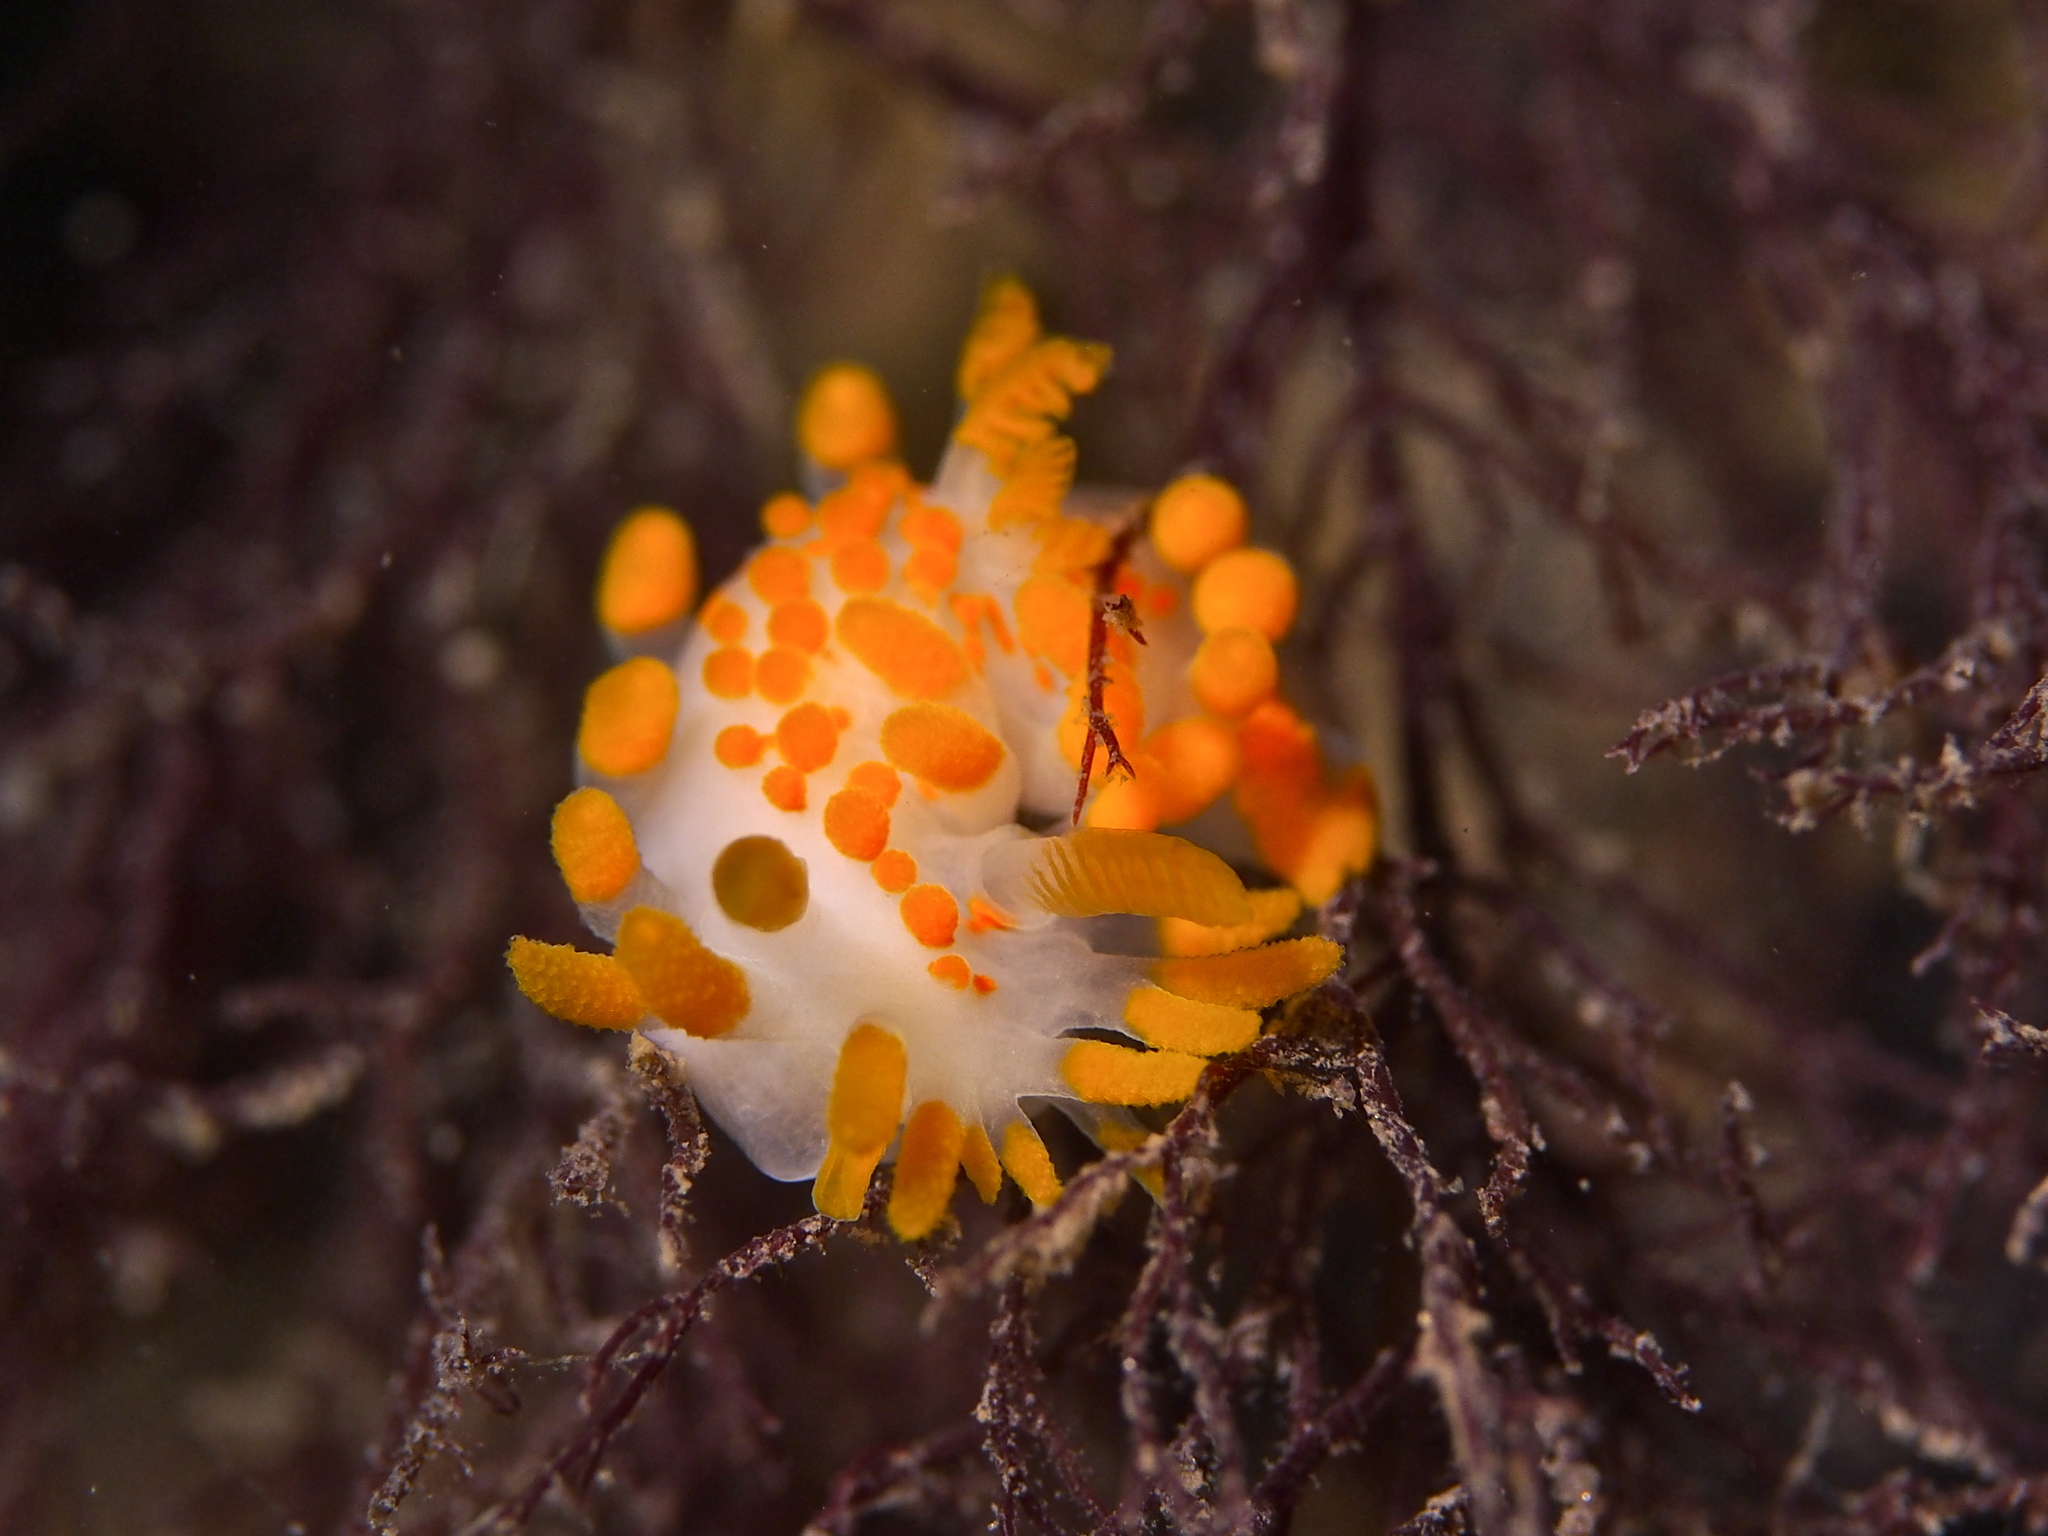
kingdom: Animalia
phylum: Mollusca
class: Gastropoda
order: Nudibranchia
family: Polyceridae
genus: Limacia
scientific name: Limacia clavigera
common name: Orange-clubbed sea slug
